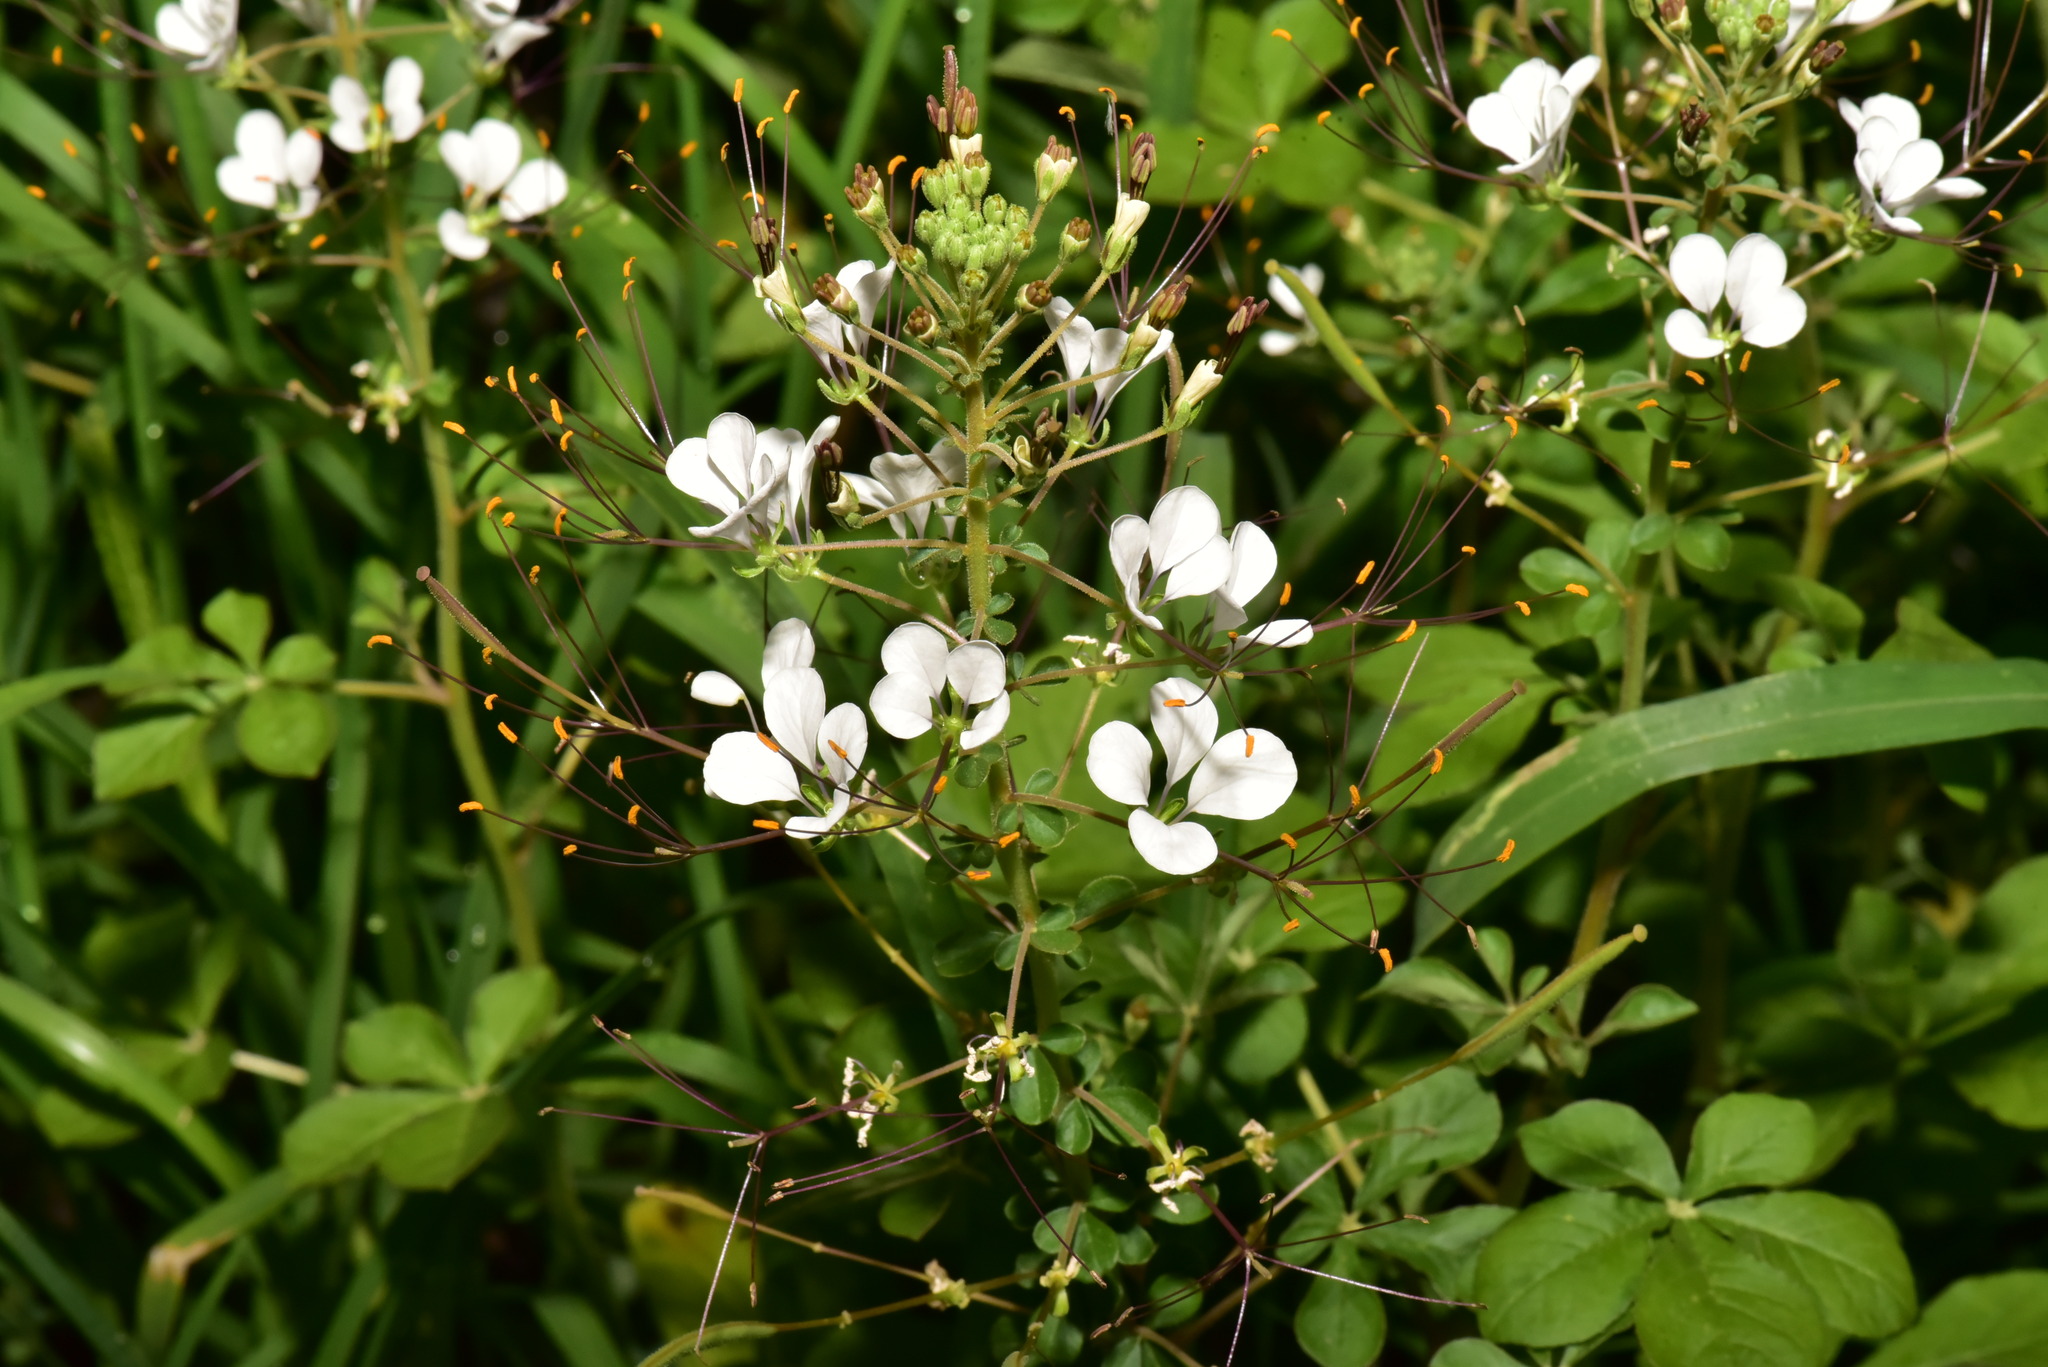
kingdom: Plantae
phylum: Tracheophyta
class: Magnoliopsida
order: Brassicales
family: Cleomaceae
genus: Gynandropsis
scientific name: Gynandropsis gynandra
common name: Spiderwisp
